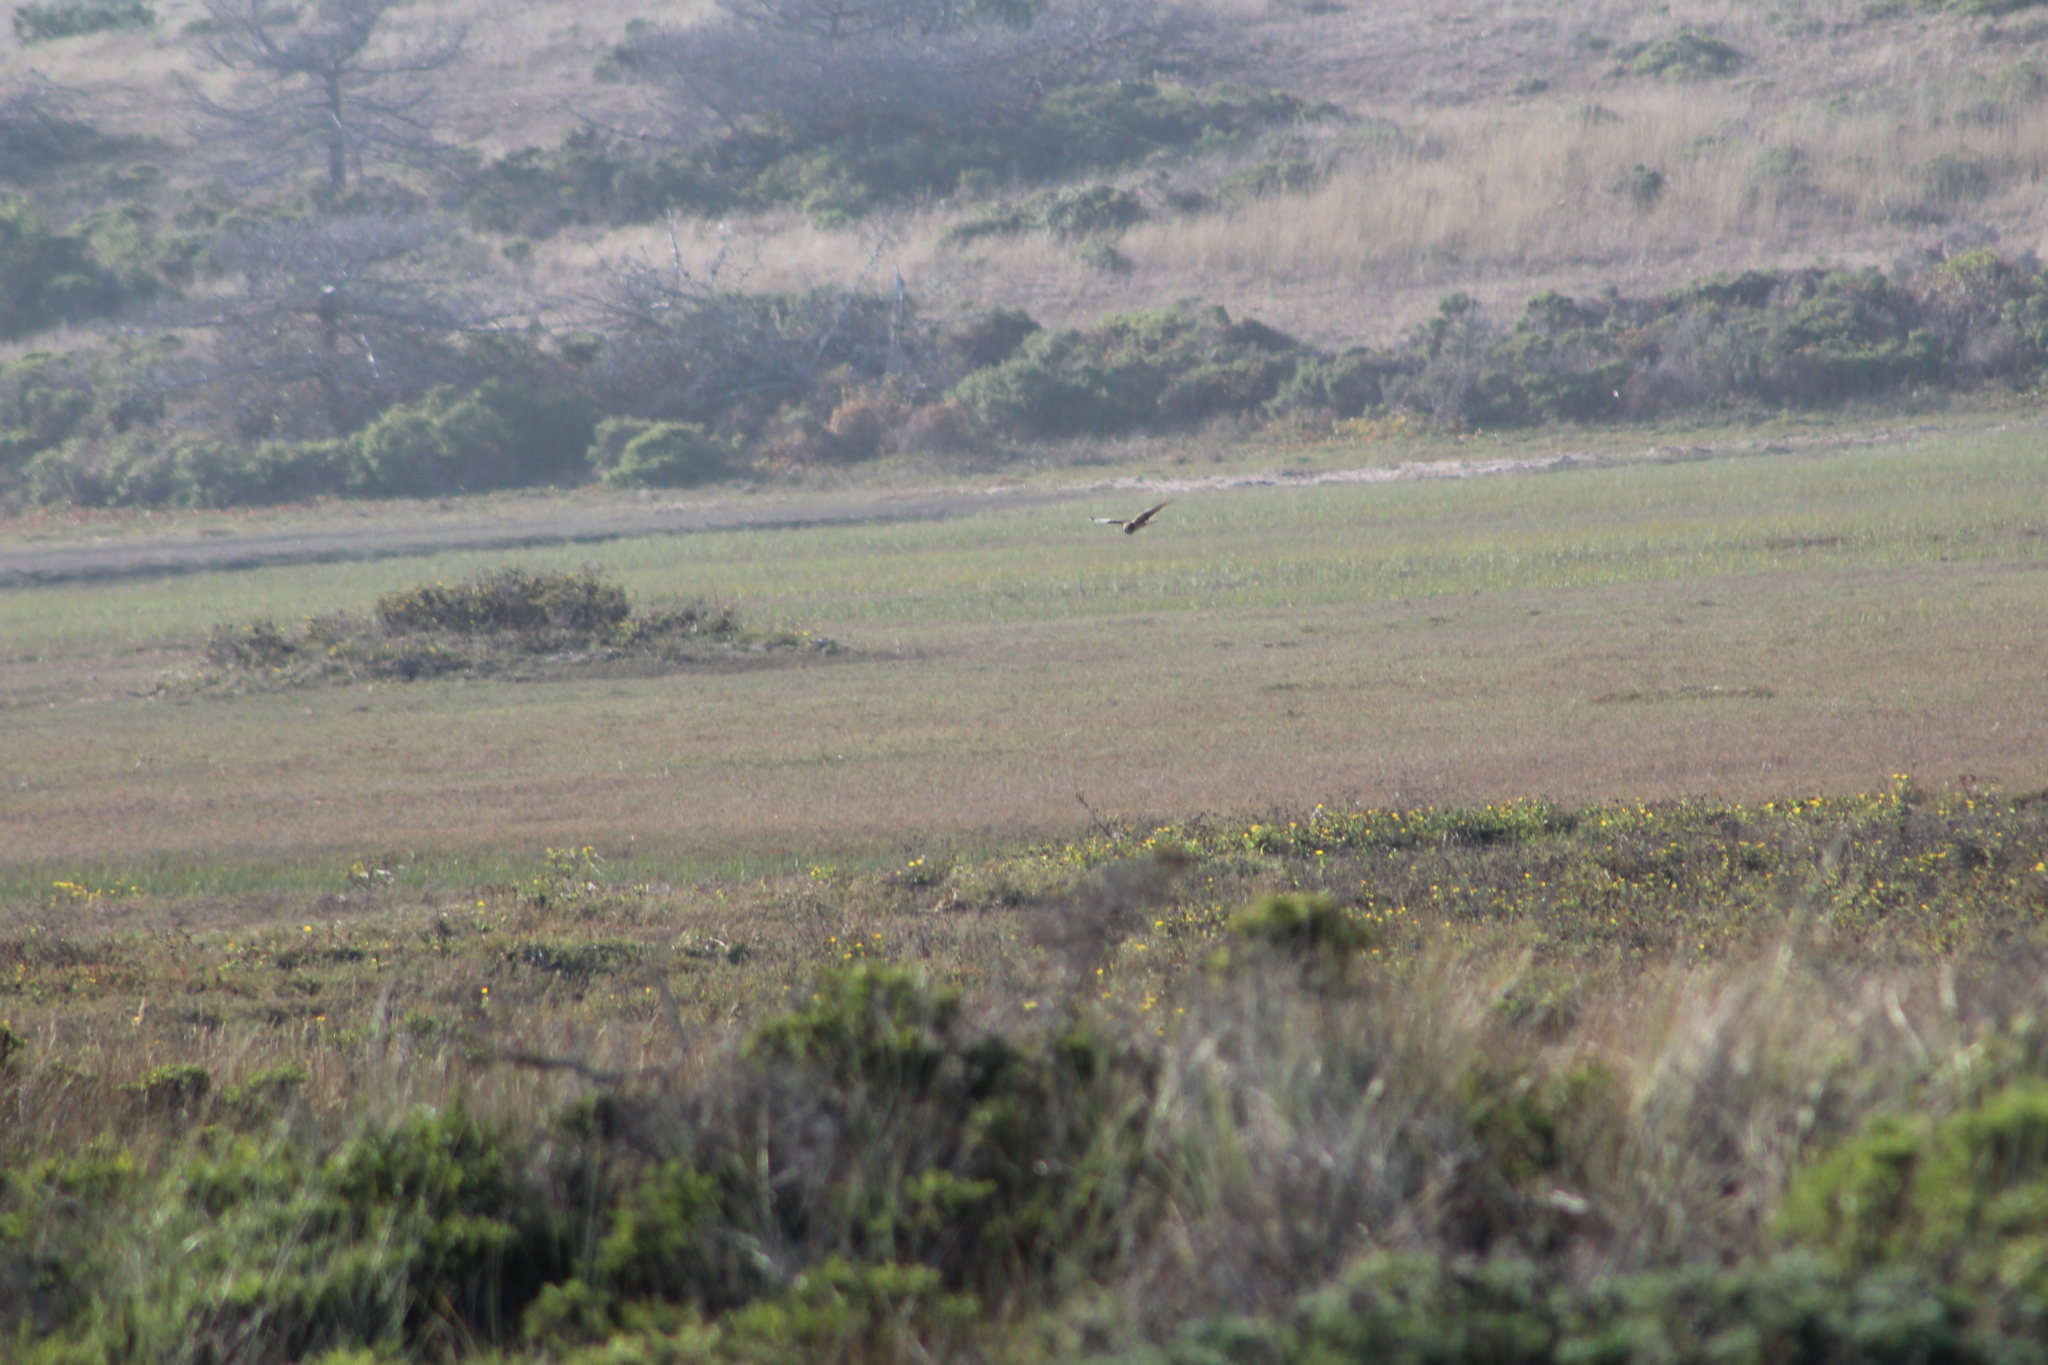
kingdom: Animalia
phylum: Chordata
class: Aves
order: Accipitriformes
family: Accipitridae
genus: Circus
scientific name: Circus cyaneus
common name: Hen harrier
